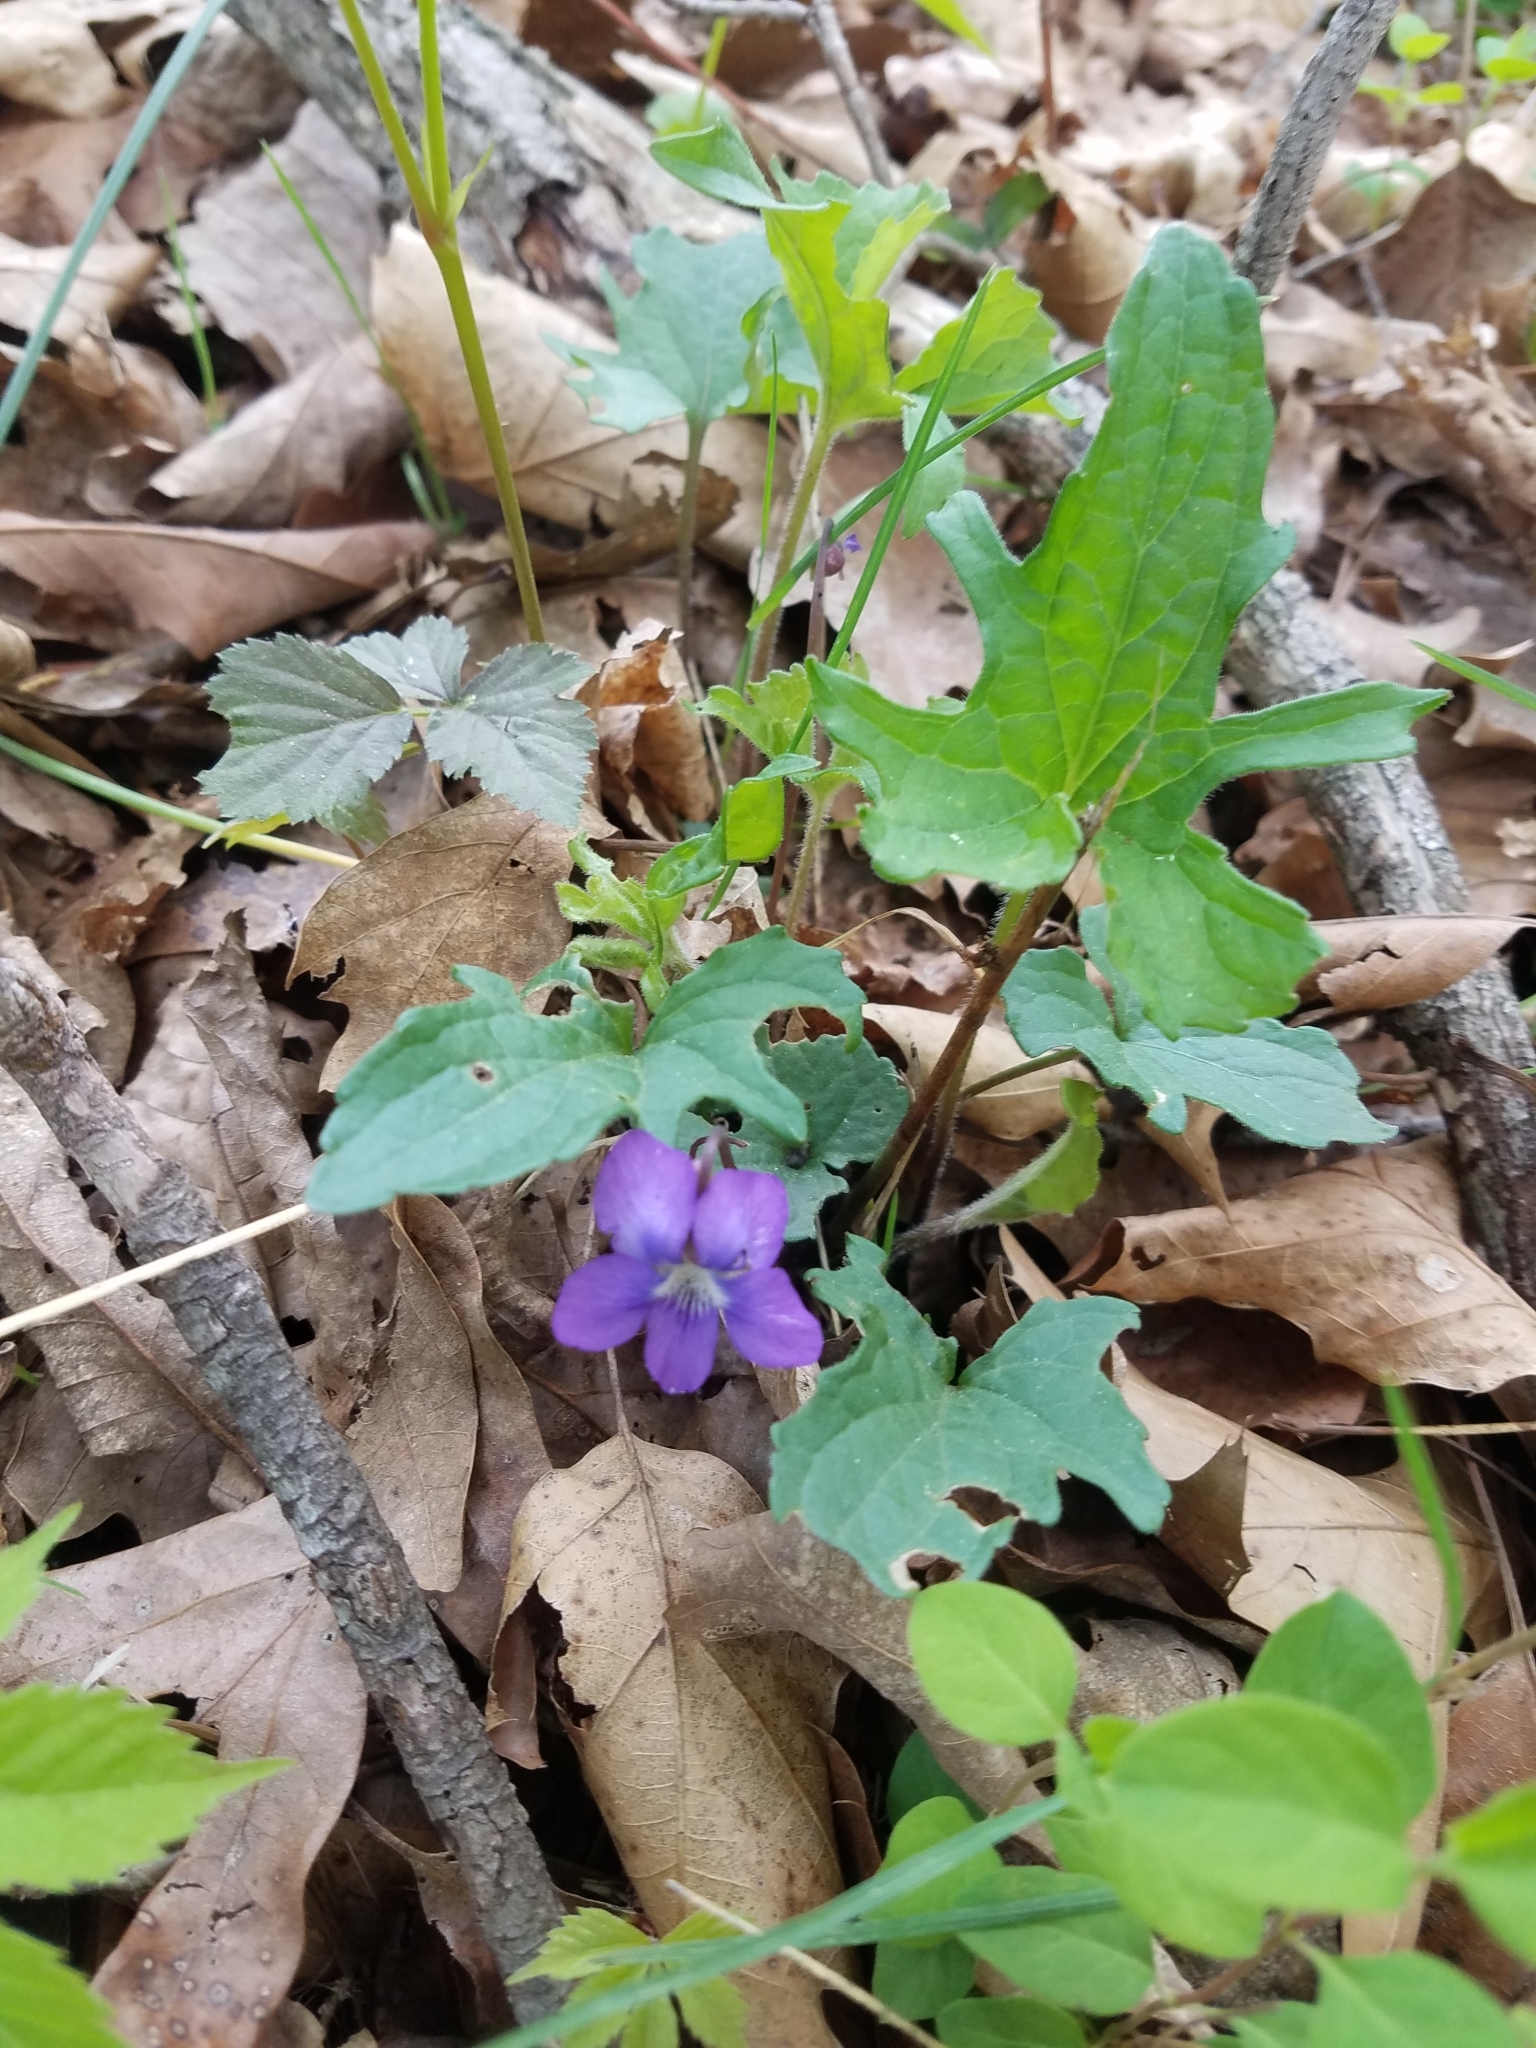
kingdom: Plantae
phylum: Tracheophyta
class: Magnoliopsida
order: Malpighiales
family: Violaceae
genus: Viola
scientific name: Viola palmata
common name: Early blue violet
